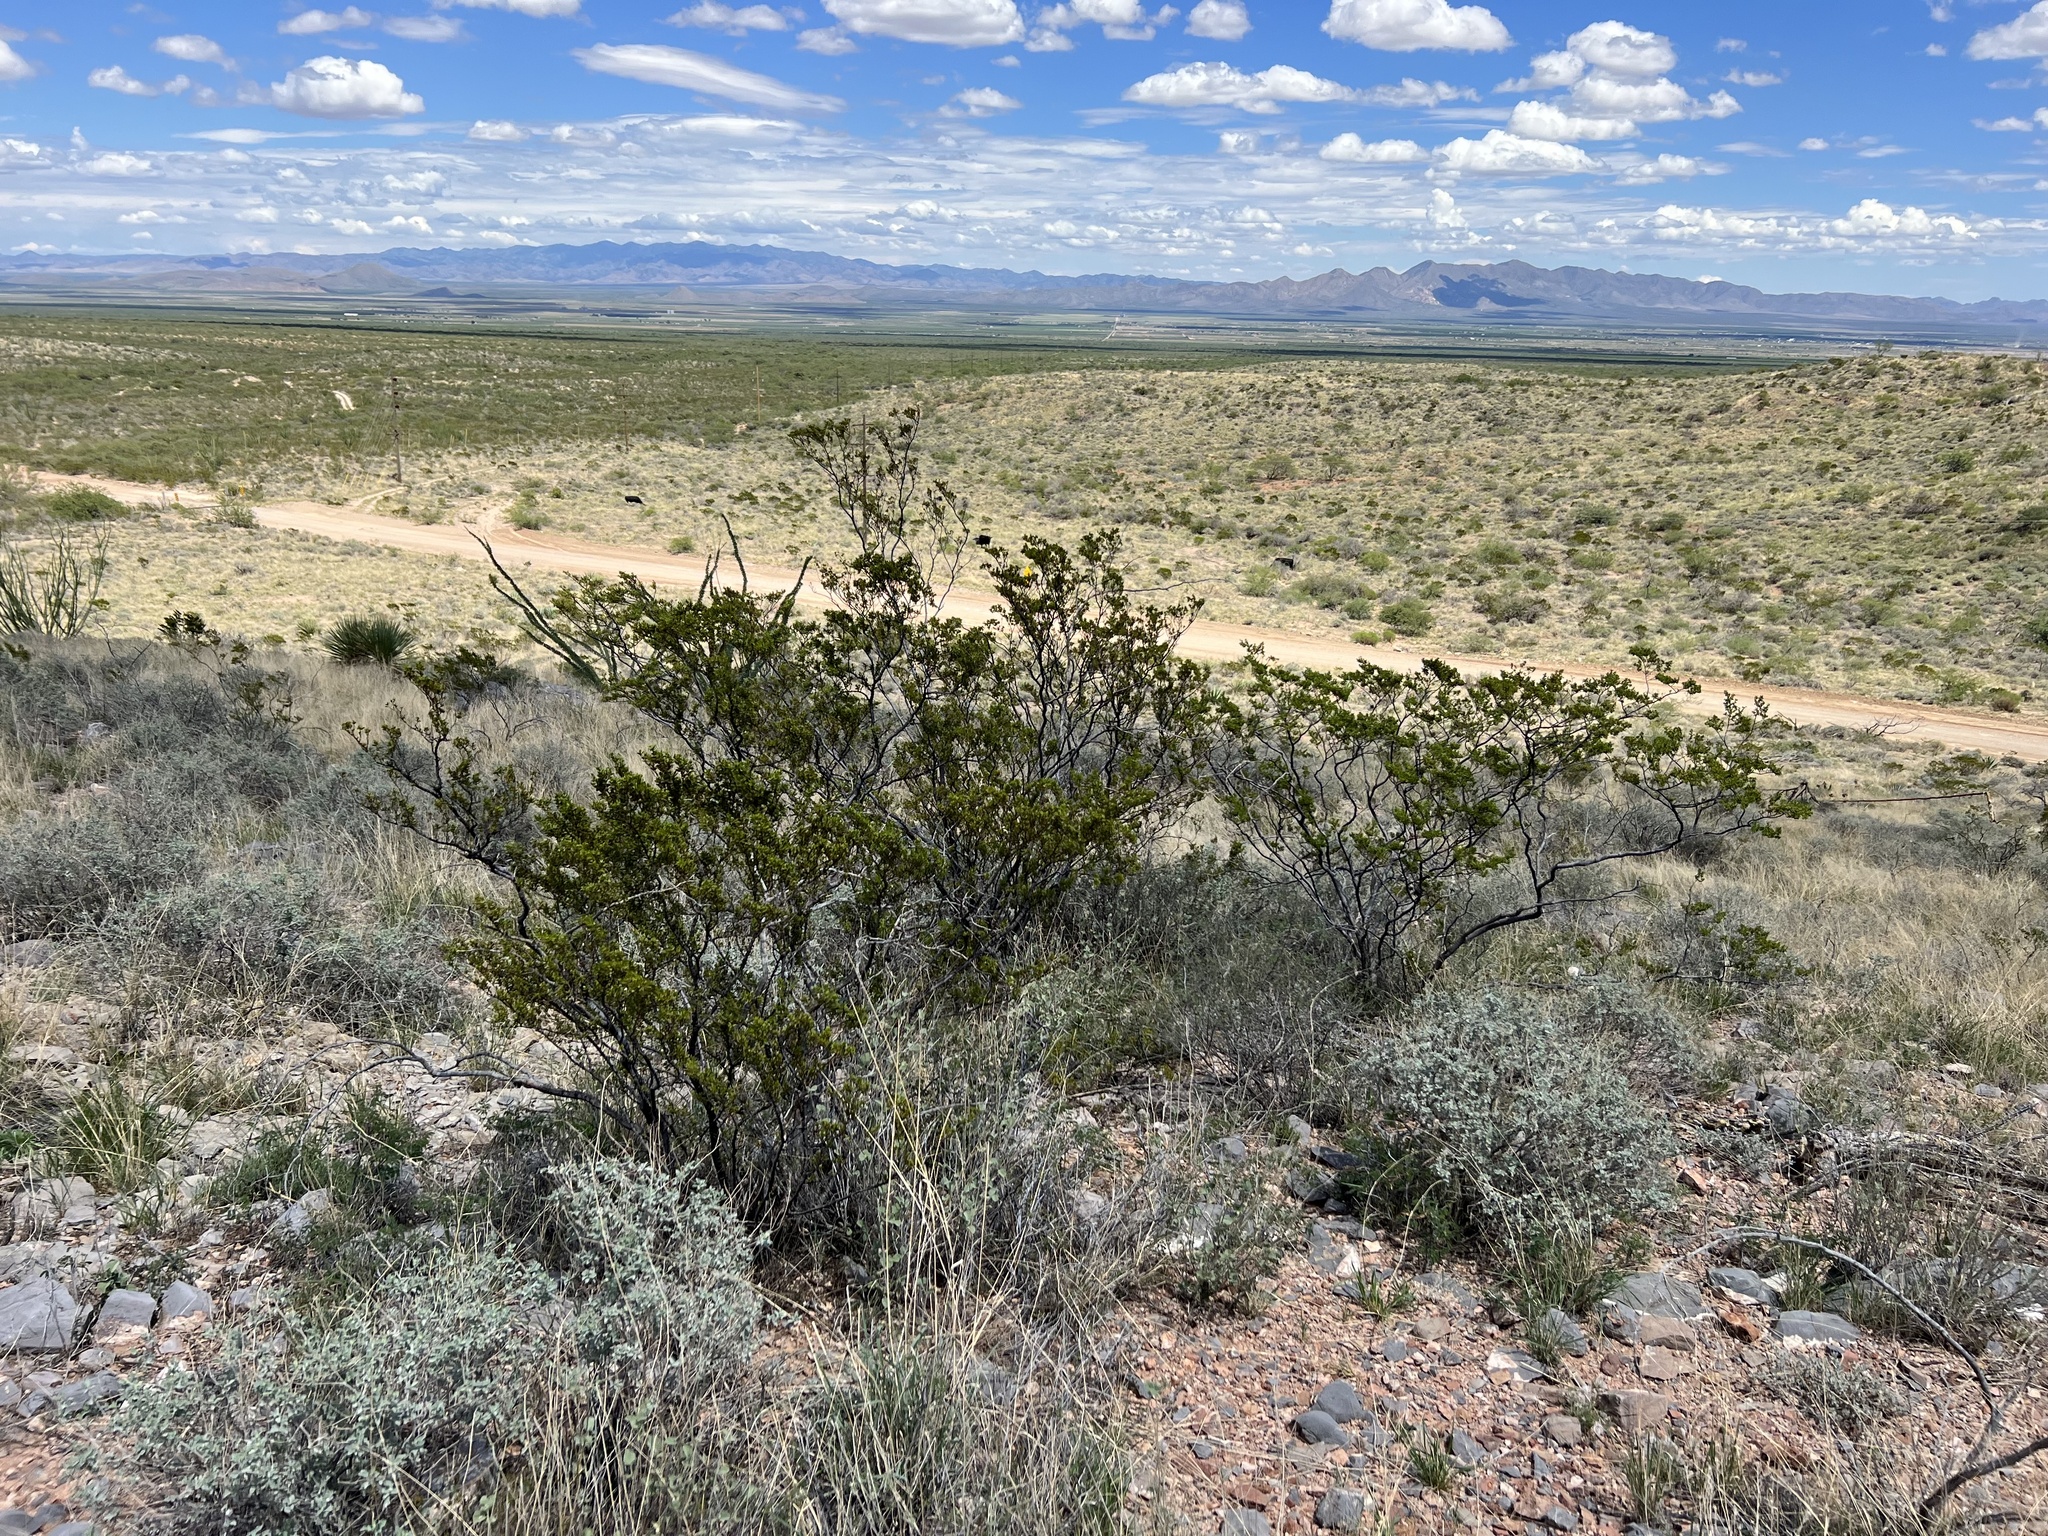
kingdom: Plantae
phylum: Tracheophyta
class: Magnoliopsida
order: Zygophyllales
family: Zygophyllaceae
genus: Larrea
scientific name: Larrea tridentata
